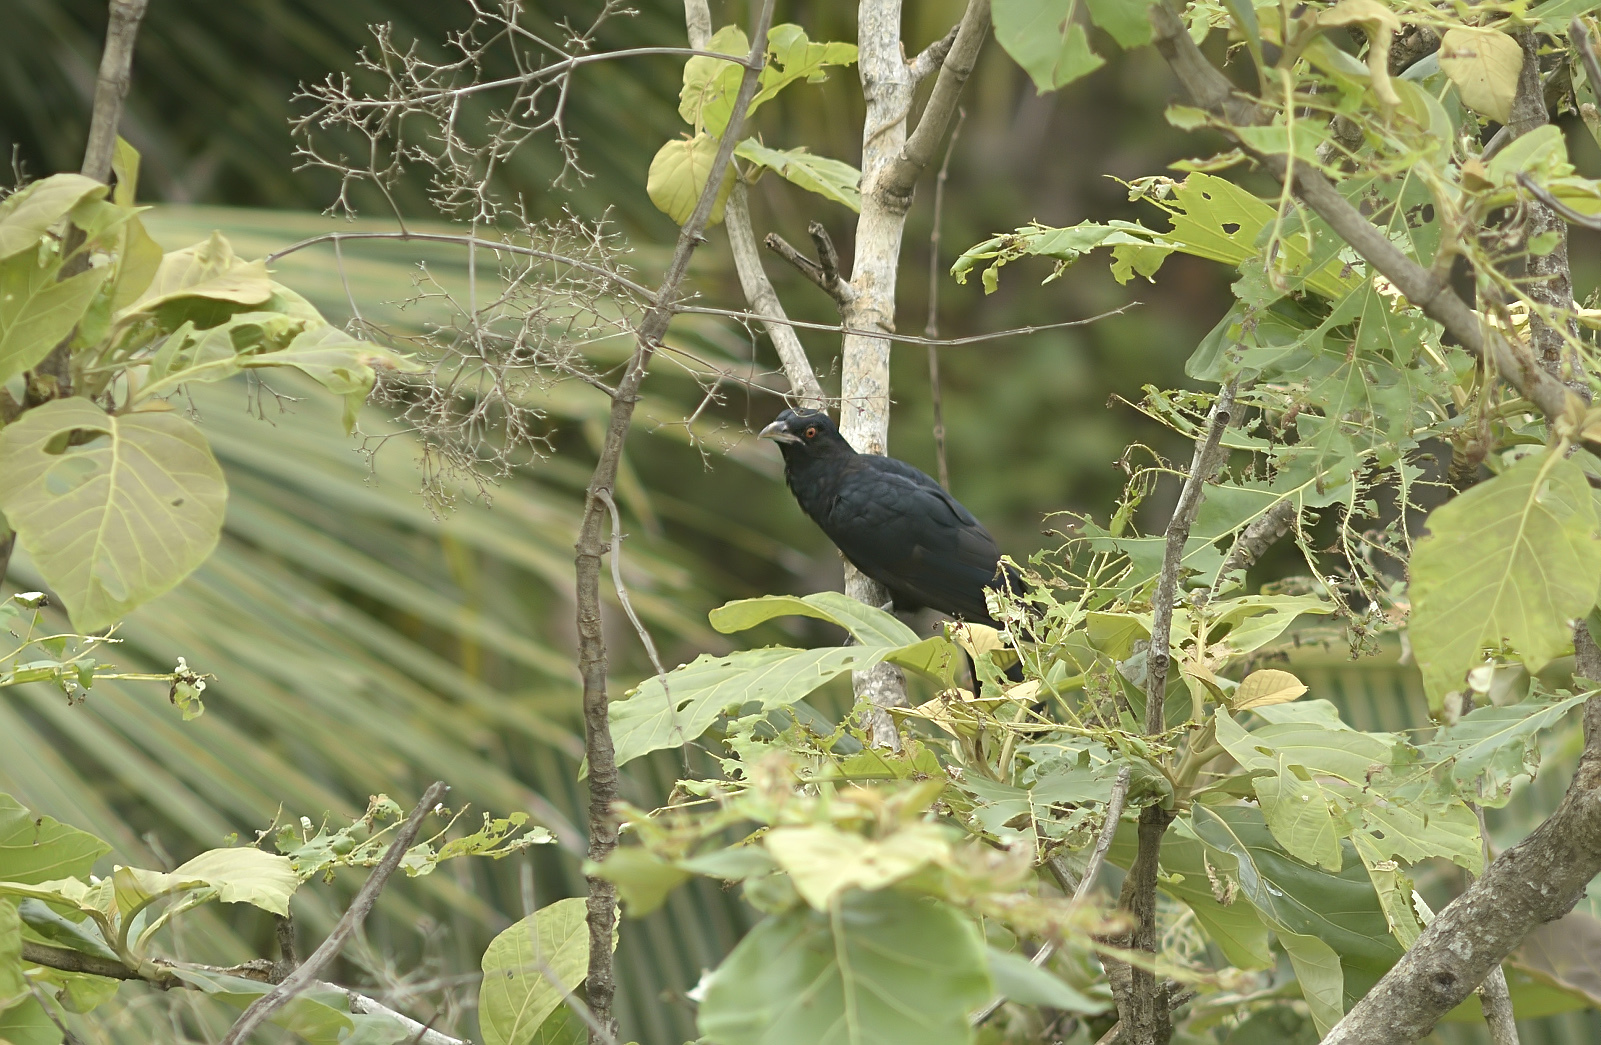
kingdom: Animalia
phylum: Chordata
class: Aves
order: Cuculiformes
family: Cuculidae
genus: Eudynamys
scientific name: Eudynamys scolopaceus
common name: Asian koel
